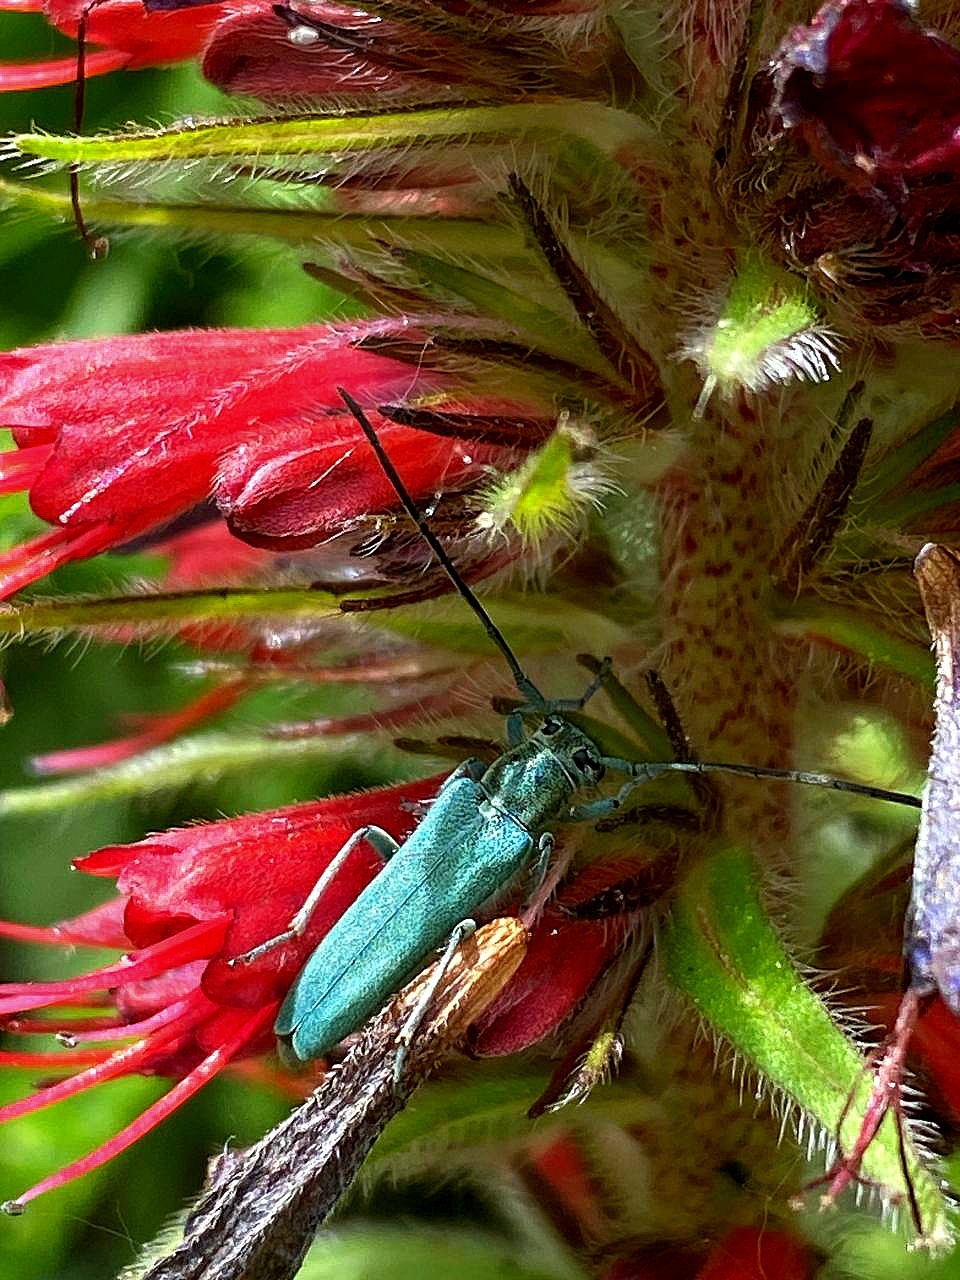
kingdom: Animalia
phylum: Arthropoda
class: Insecta
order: Coleoptera
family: Cerambycidae
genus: Phytoecia
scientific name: Phytoecia coerulescens
